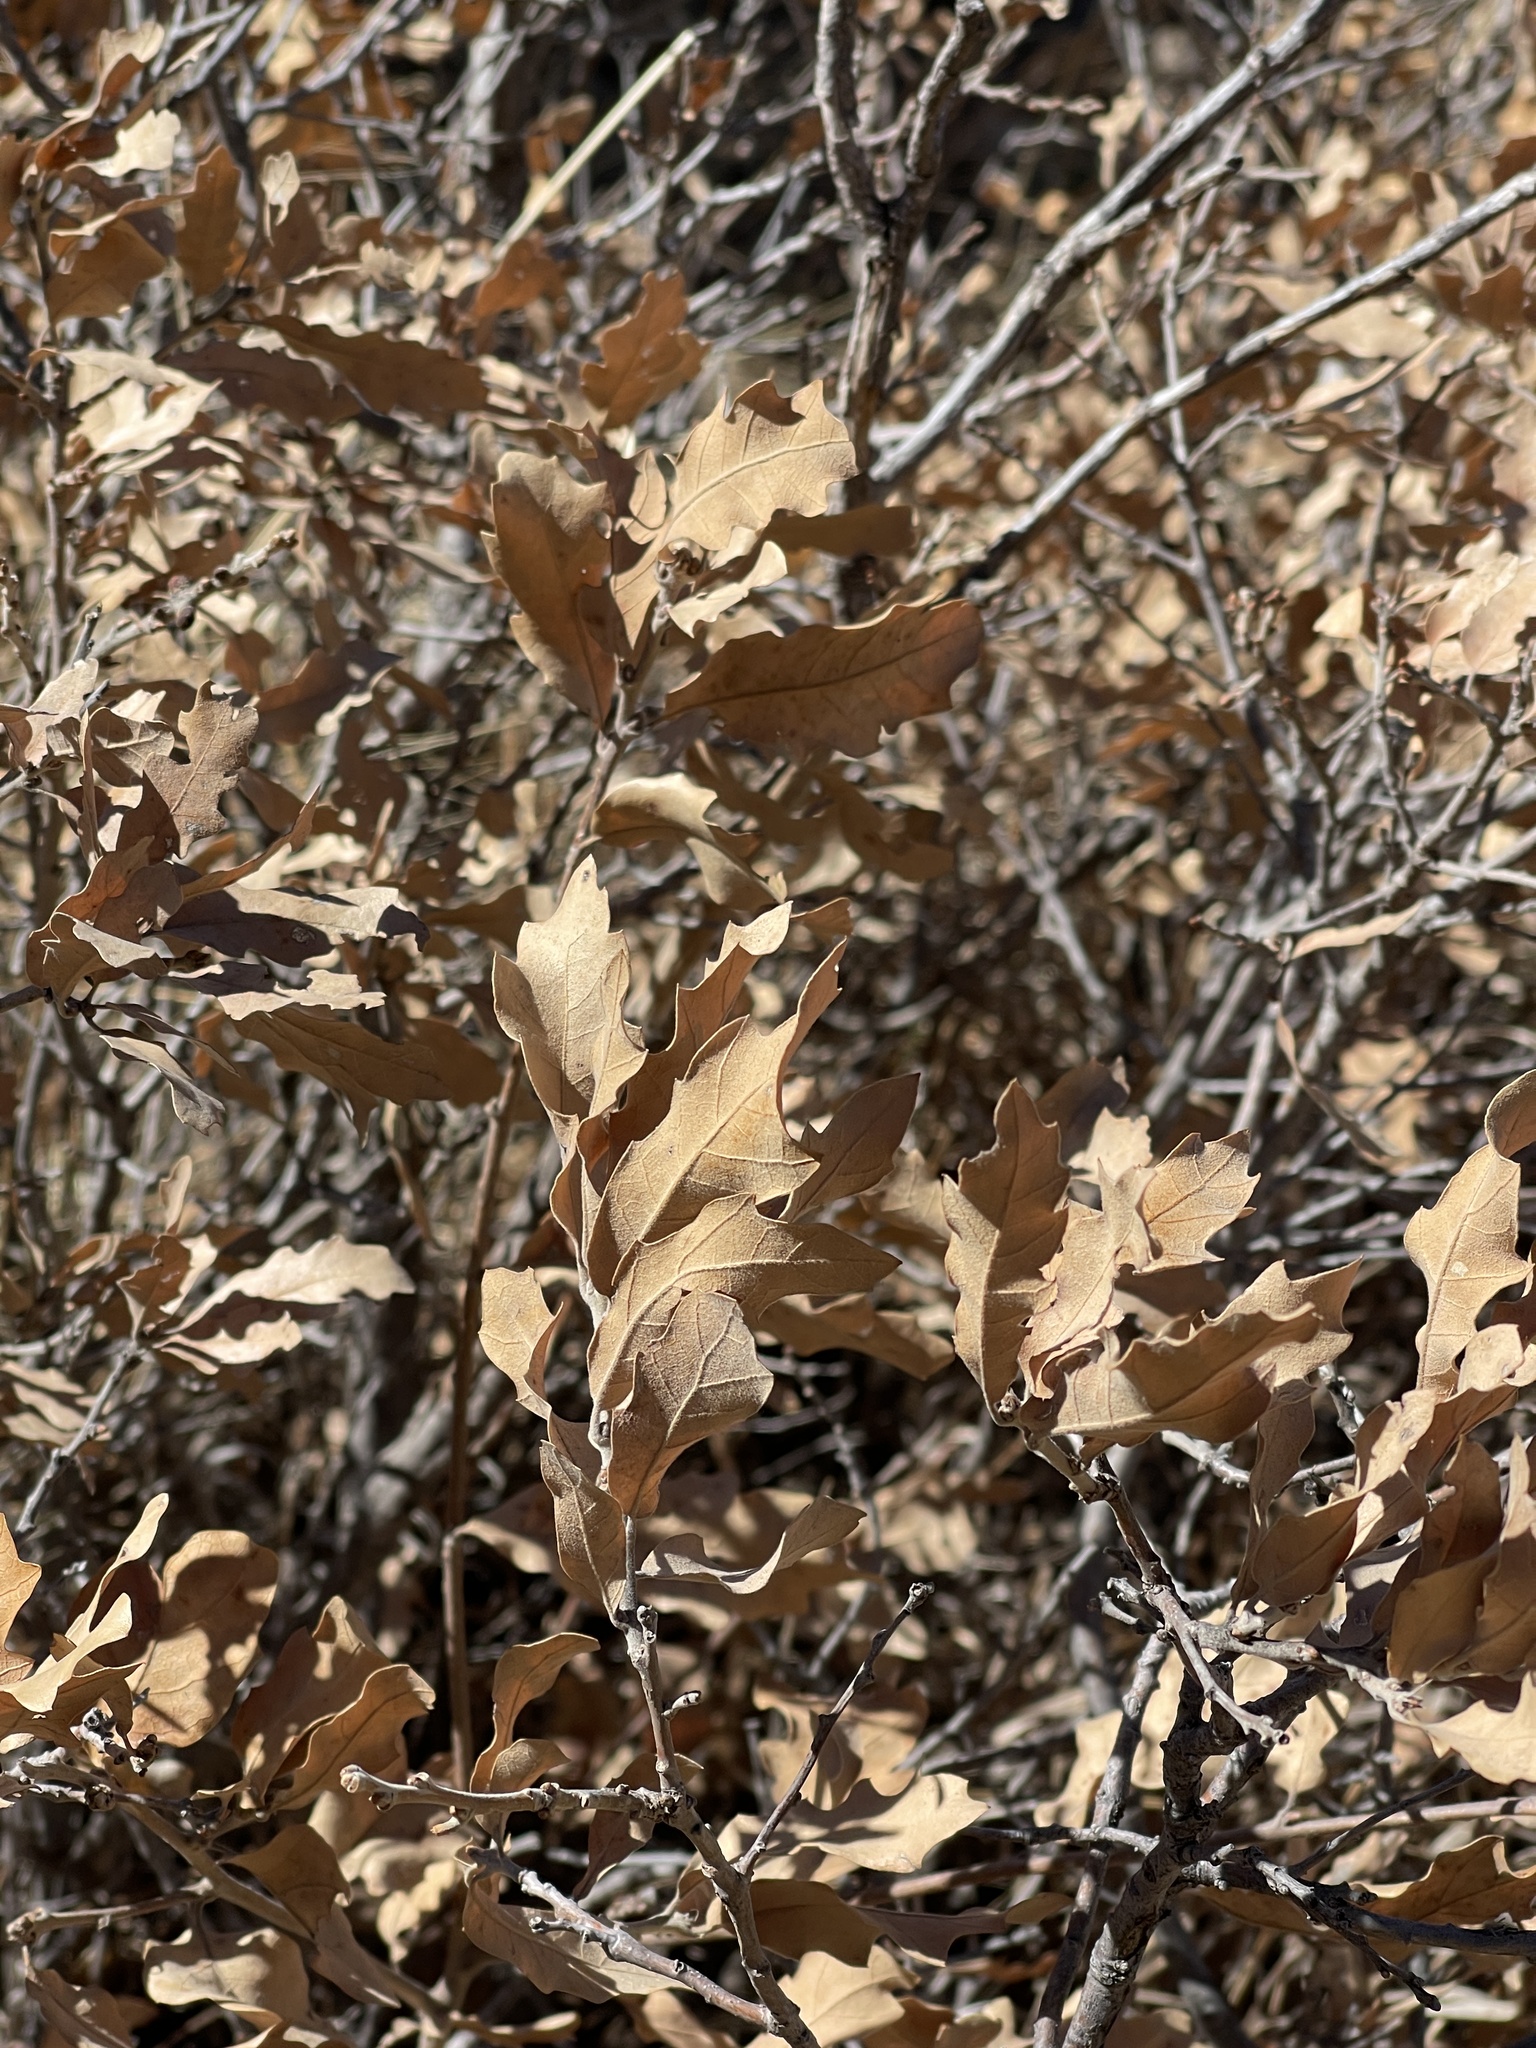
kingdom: Plantae
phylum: Tracheophyta
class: Magnoliopsida
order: Fagales
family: Fagaceae
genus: Quercus
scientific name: Quercus undulata
